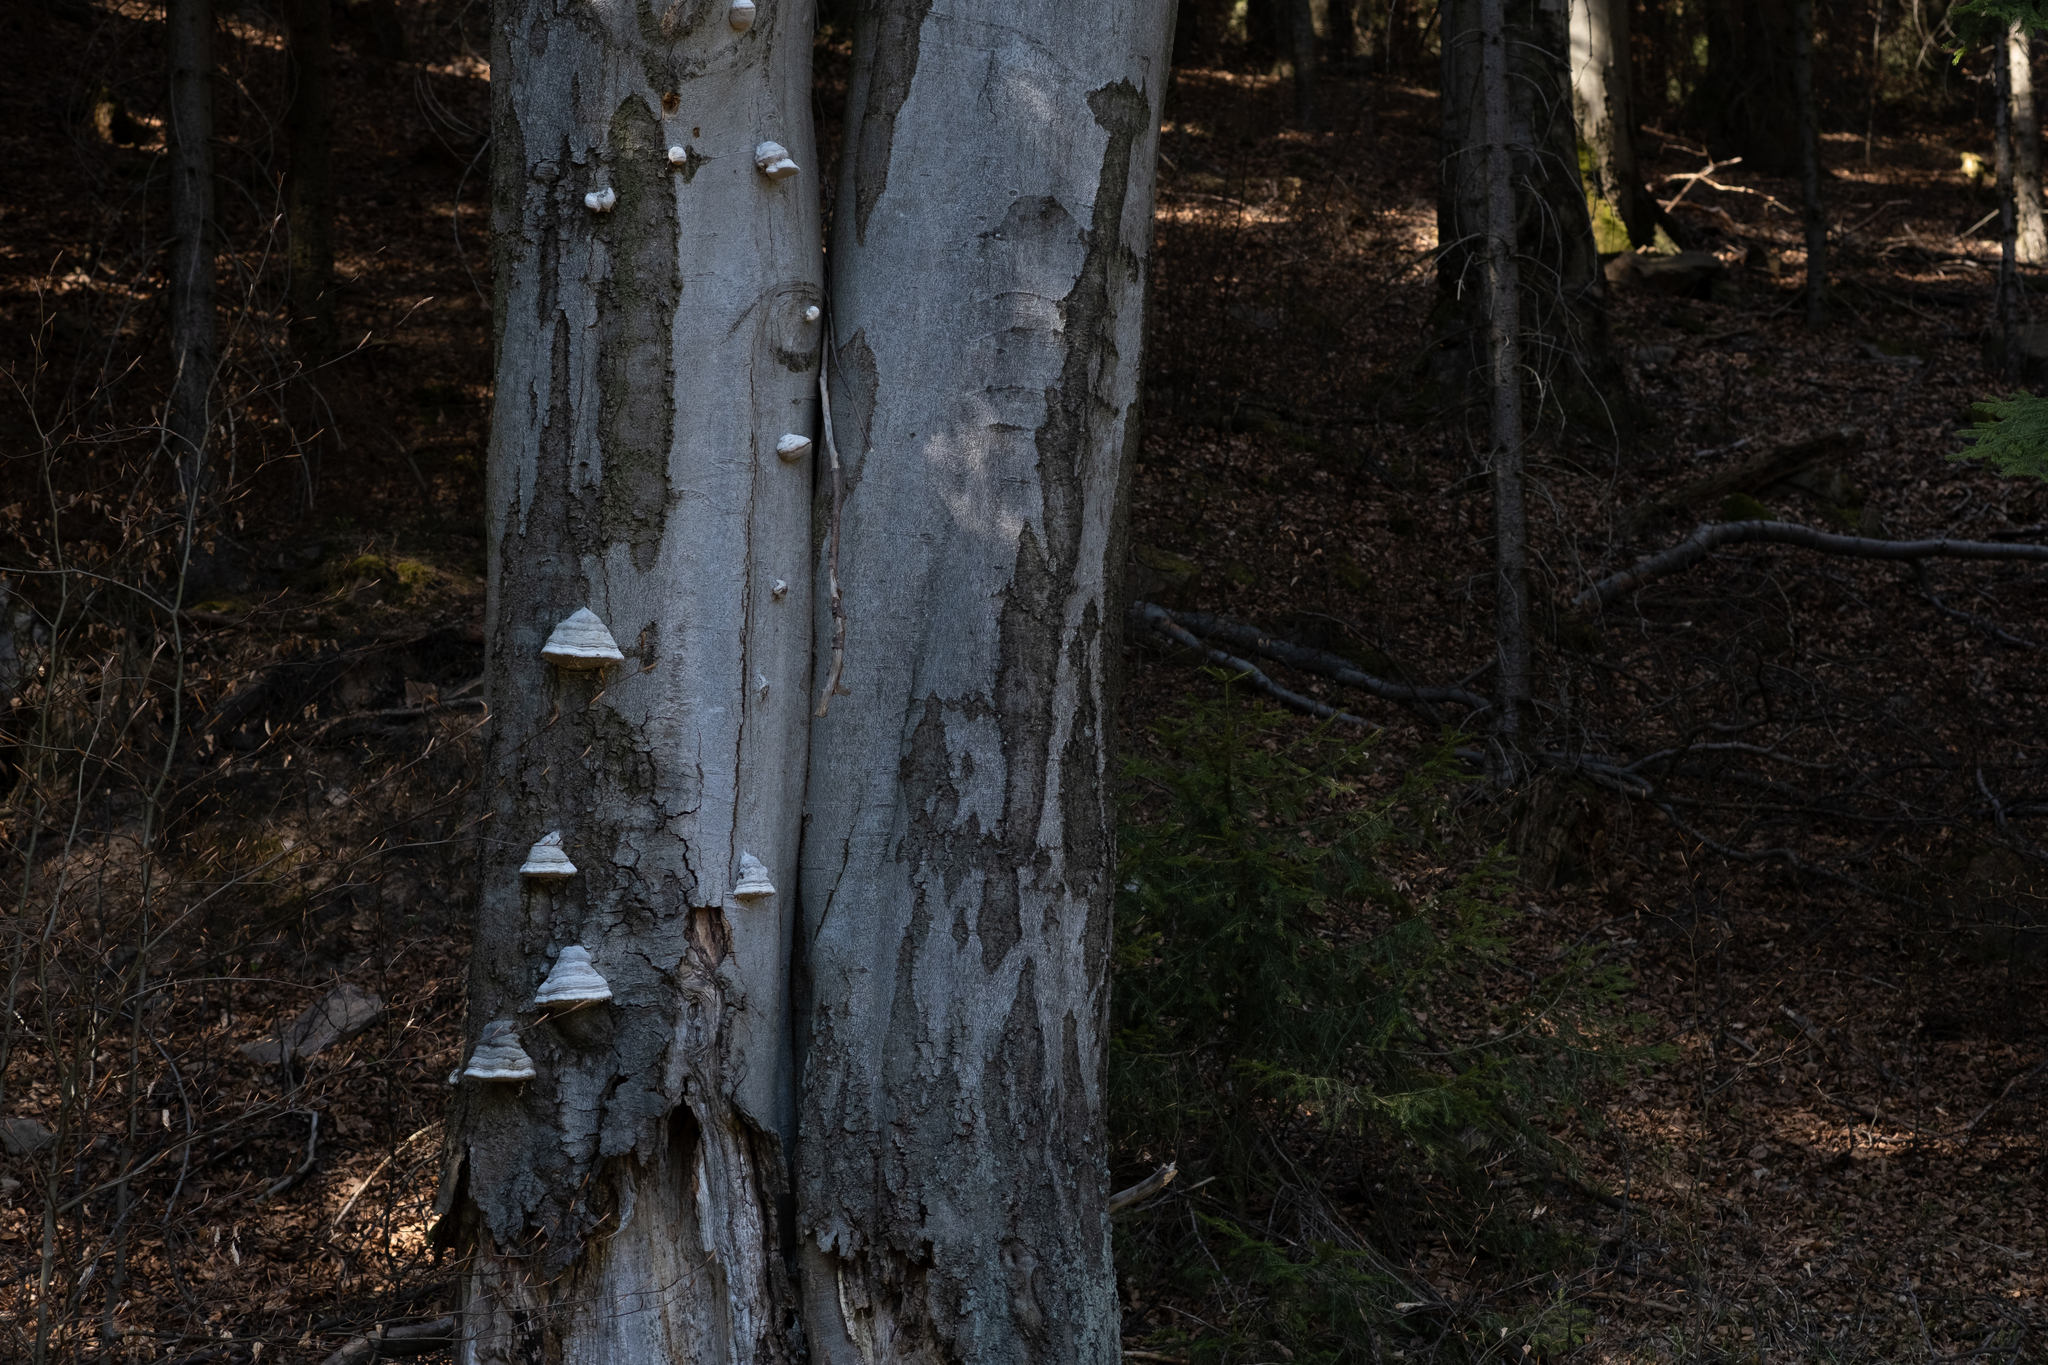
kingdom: Fungi
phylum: Basidiomycota
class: Agaricomycetes
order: Polyporales
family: Polyporaceae
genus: Fomes
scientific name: Fomes fomentarius
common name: Hoof fungus
